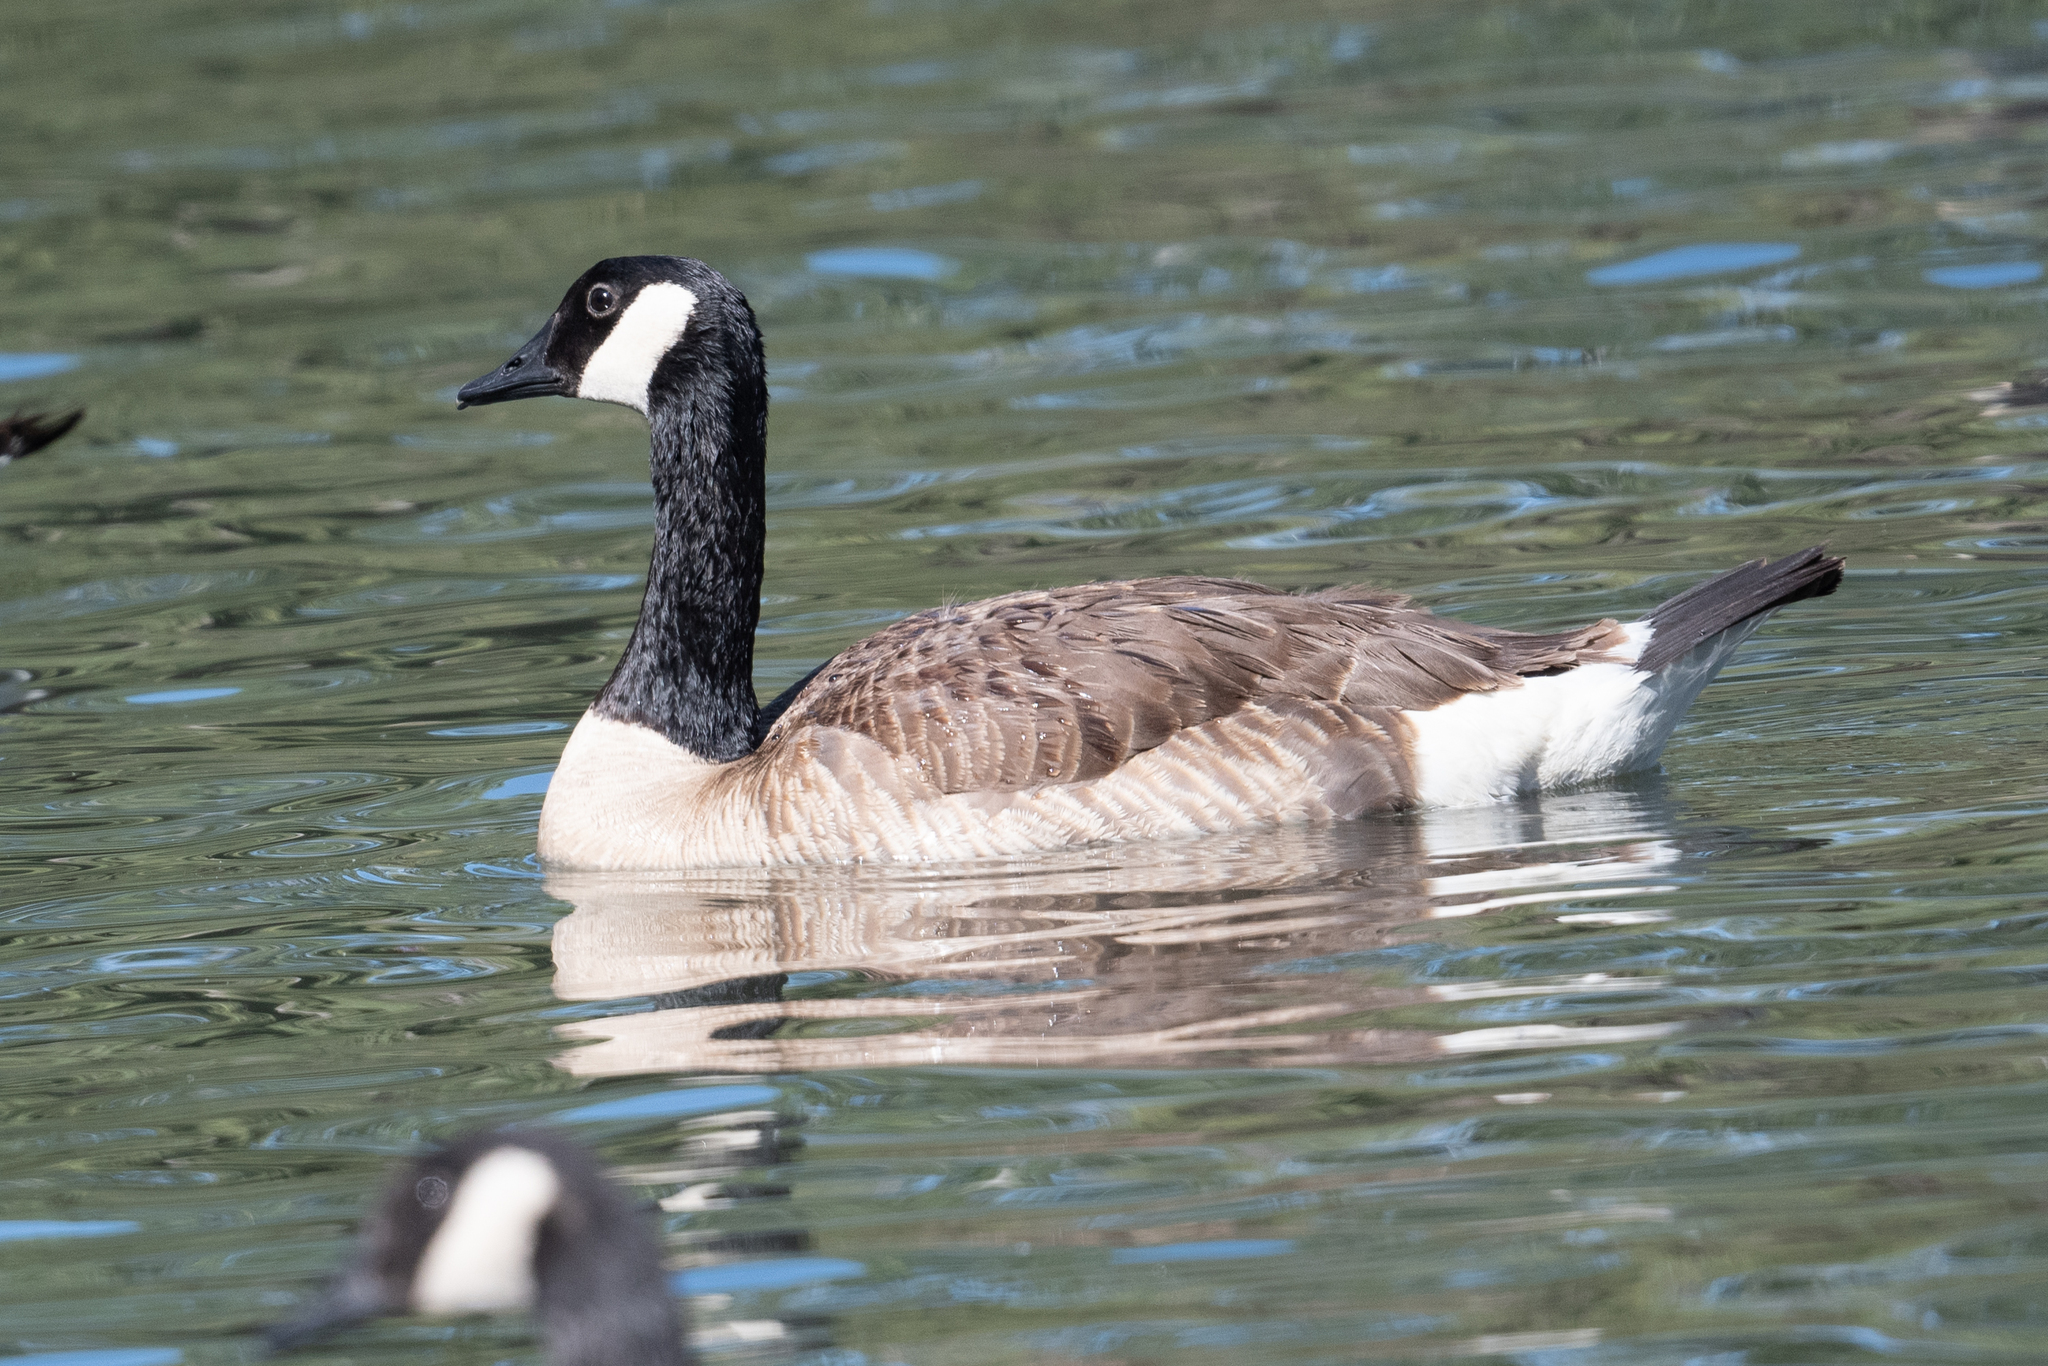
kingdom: Animalia
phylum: Chordata
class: Aves
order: Anseriformes
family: Anatidae
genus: Branta
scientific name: Branta canadensis
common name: Canada goose
